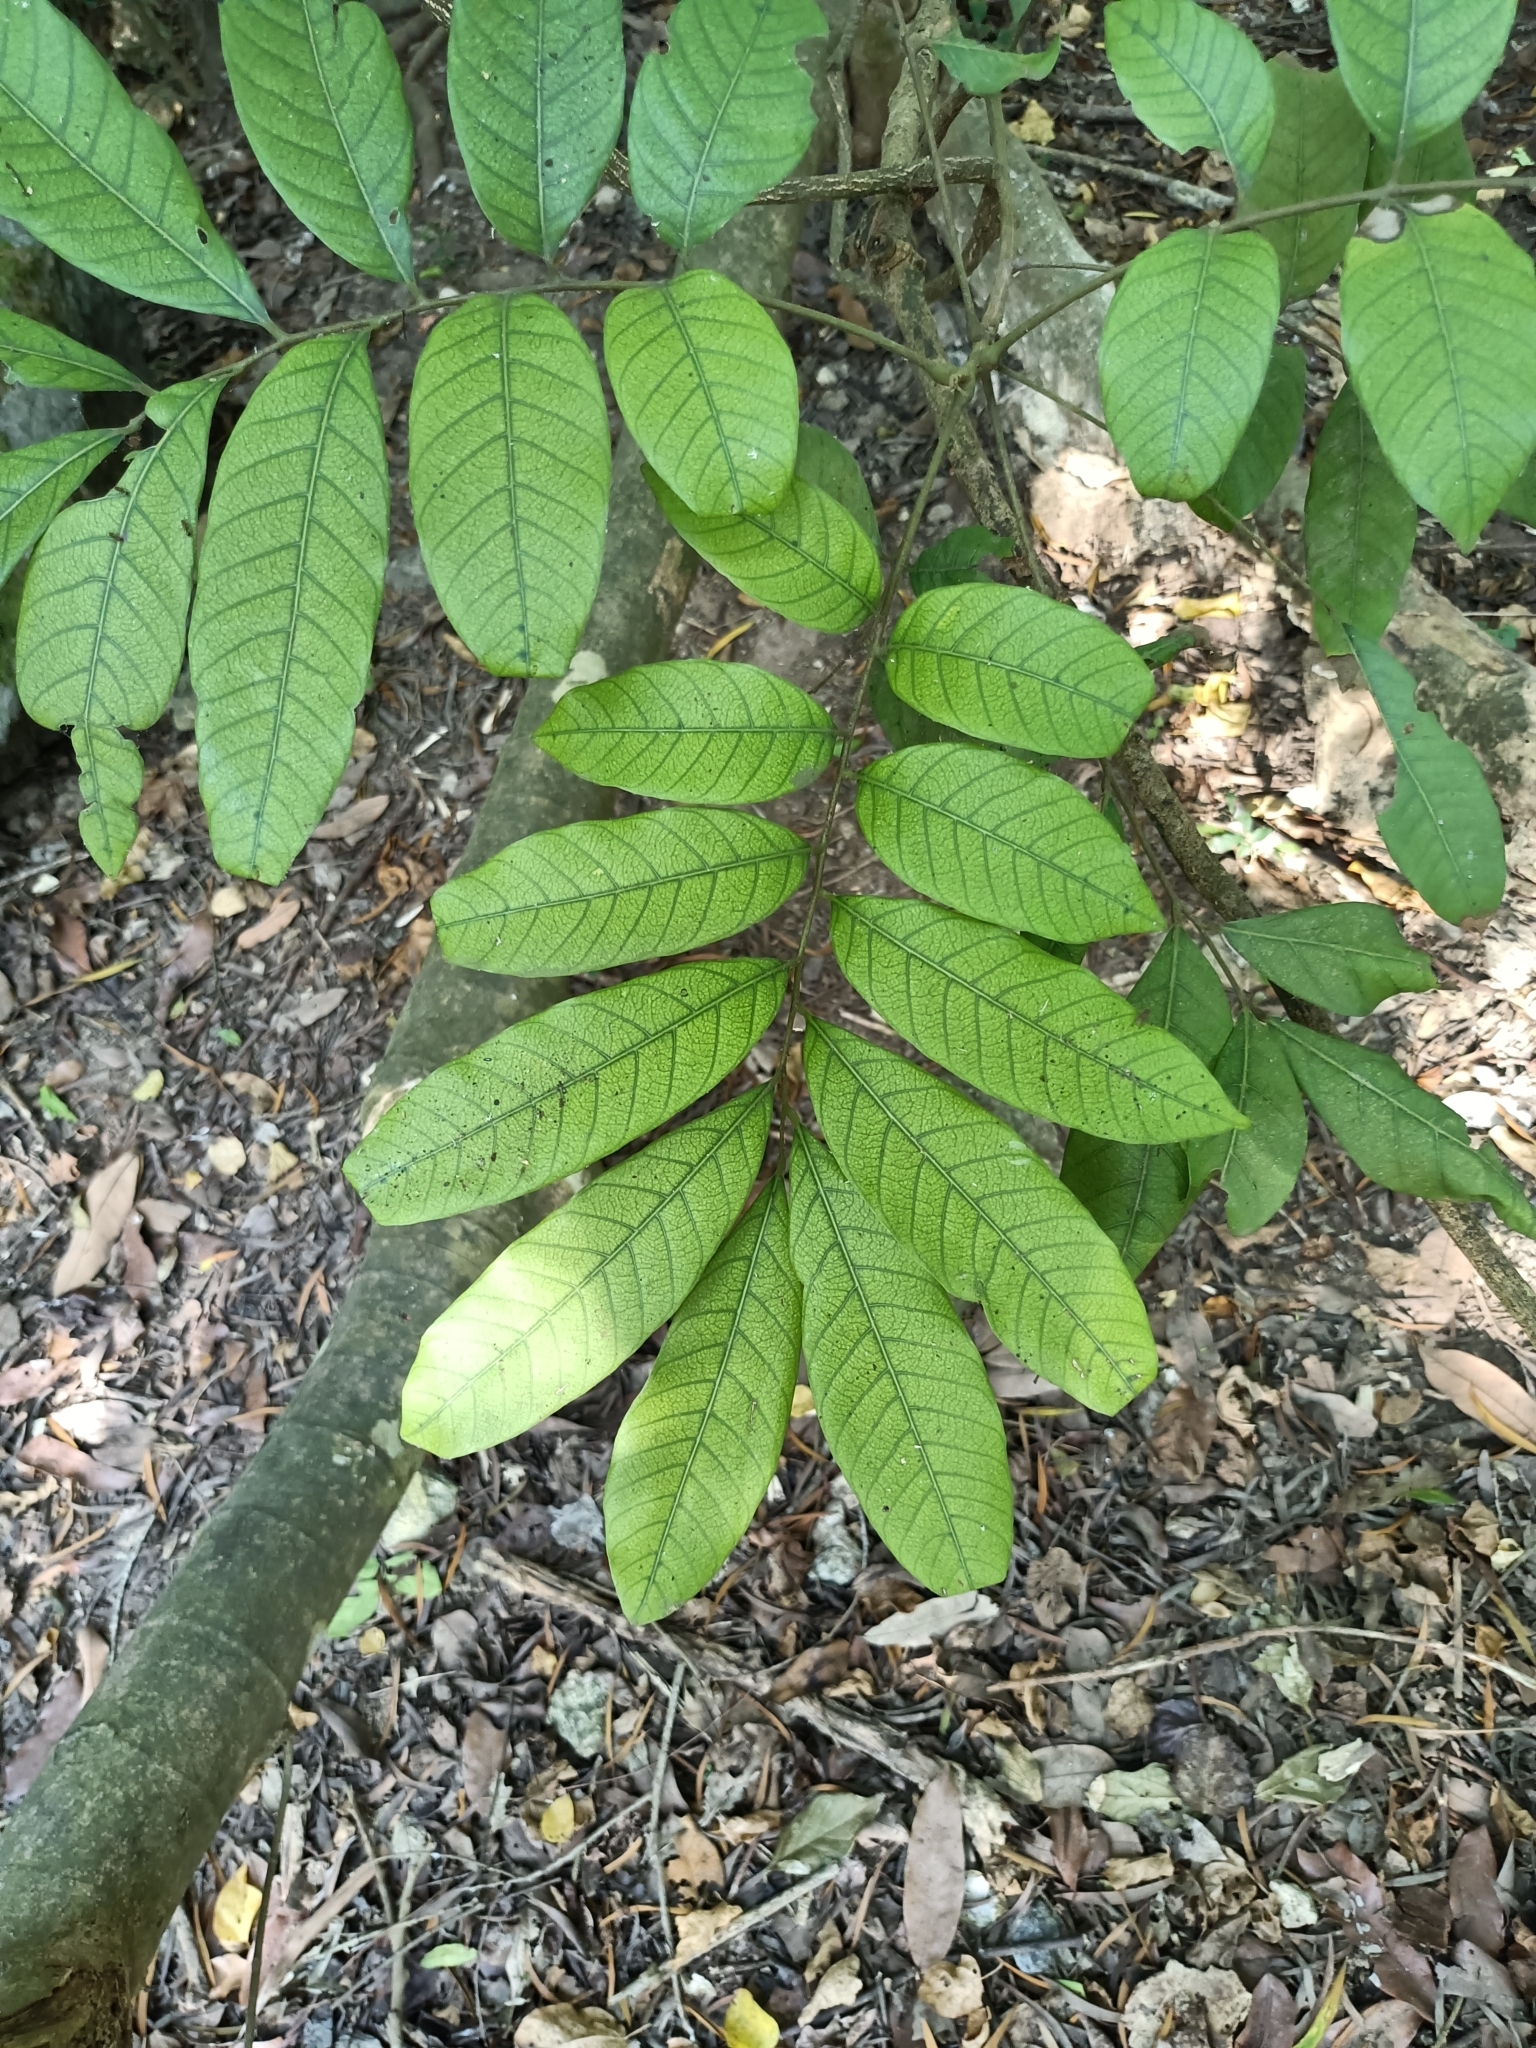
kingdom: Plantae
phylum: Tracheophyta
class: Magnoliopsida
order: Sapindales
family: Sapindaceae
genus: Dimocarpus
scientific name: Dimocarpus longan
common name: Longan
